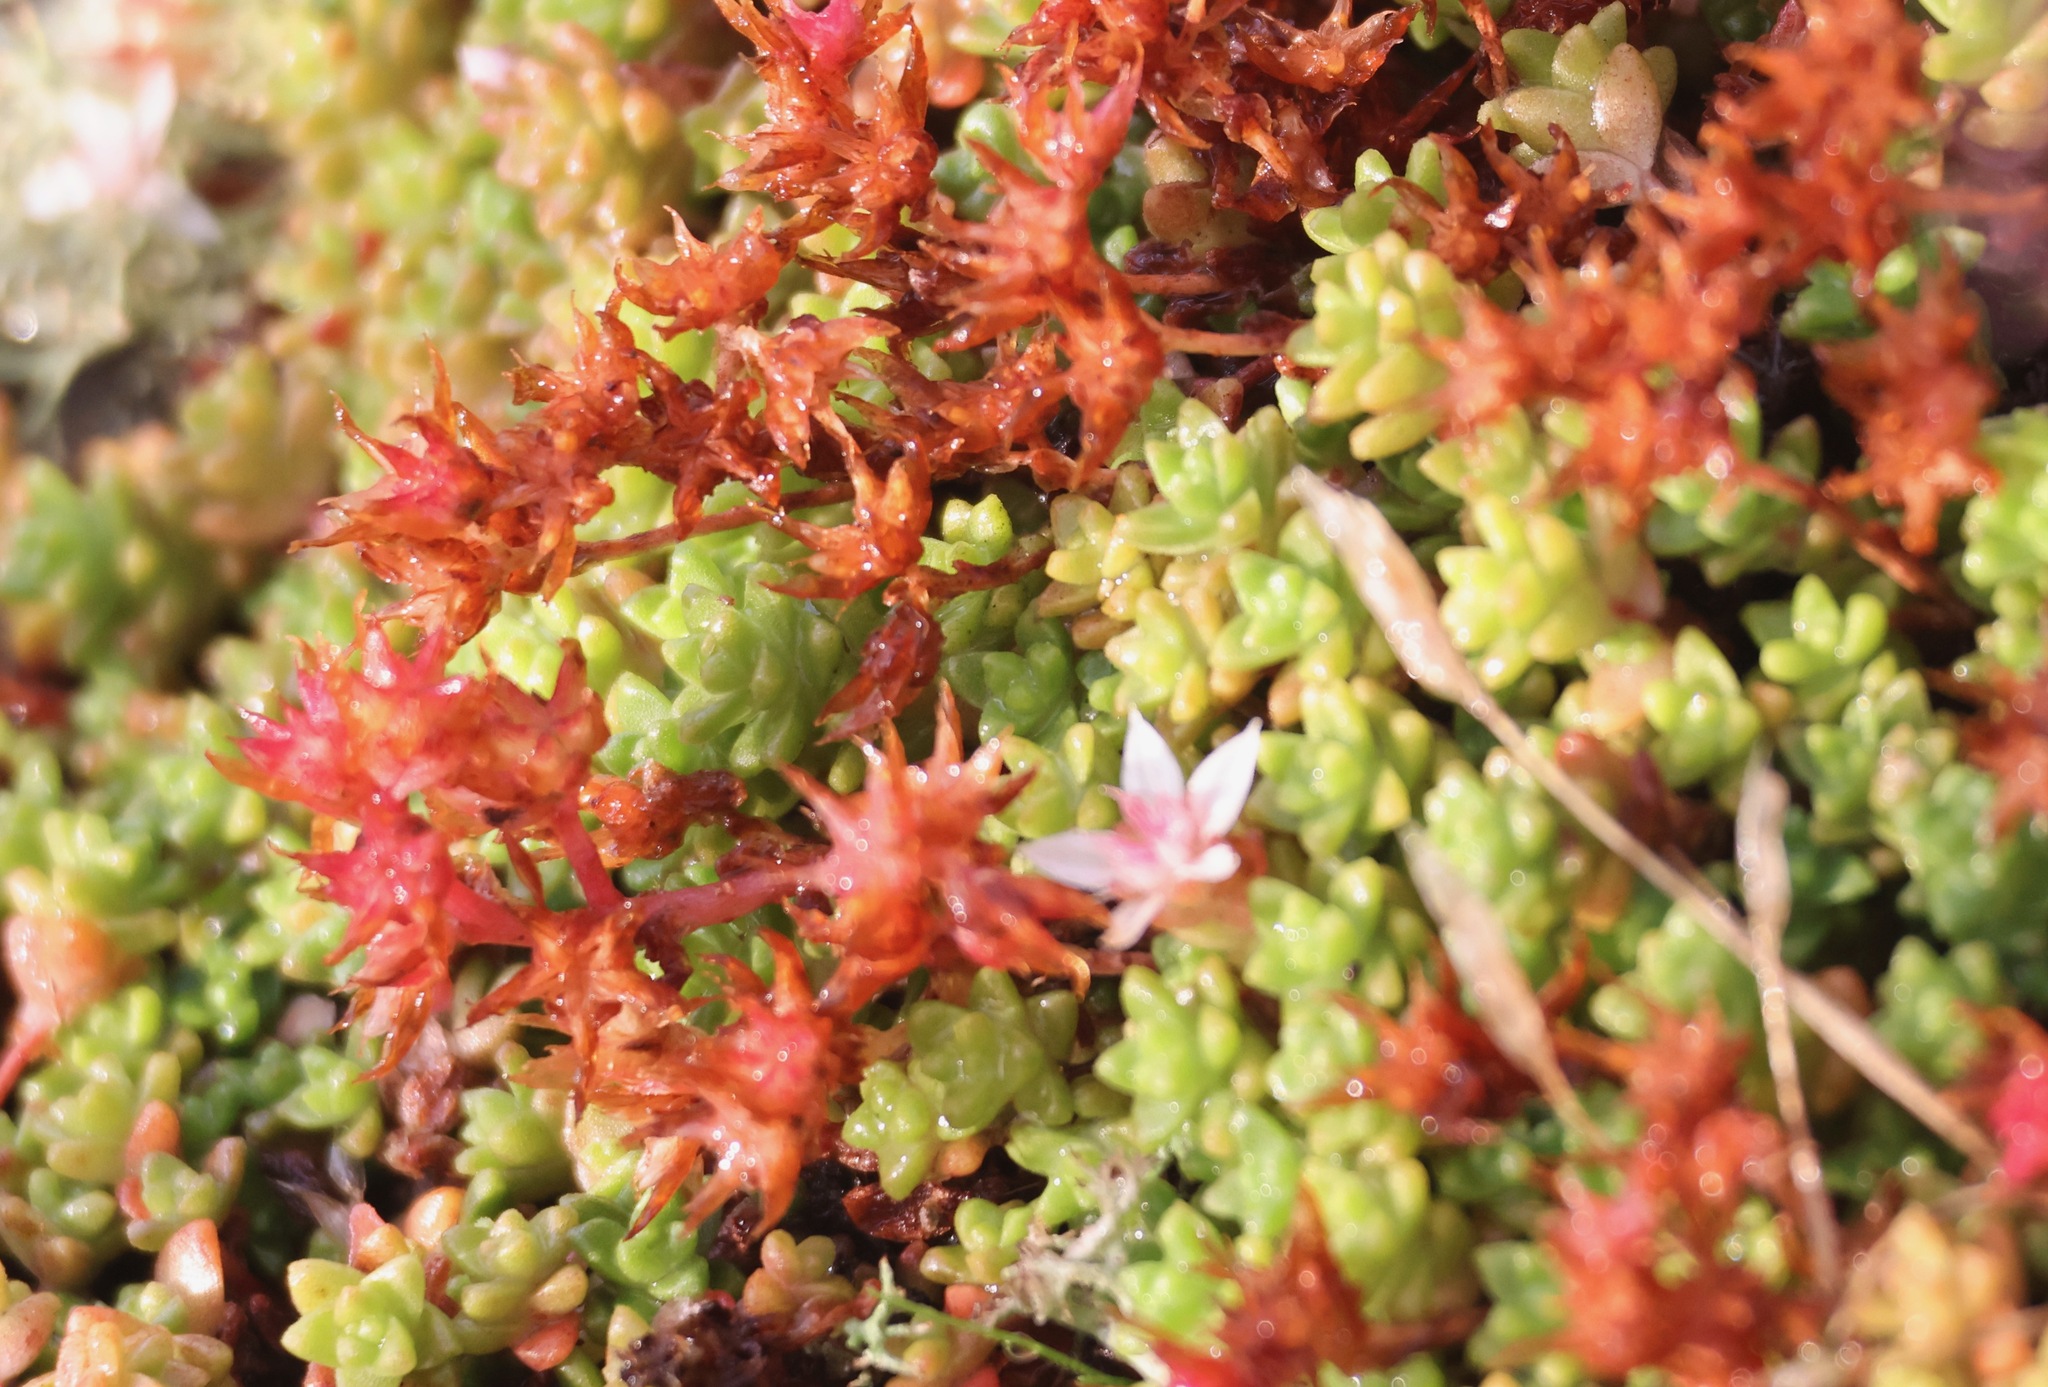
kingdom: Plantae
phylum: Tracheophyta
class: Magnoliopsida
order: Saxifragales
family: Crassulaceae
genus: Sedum
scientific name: Sedum anglicum
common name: English stonecrop
